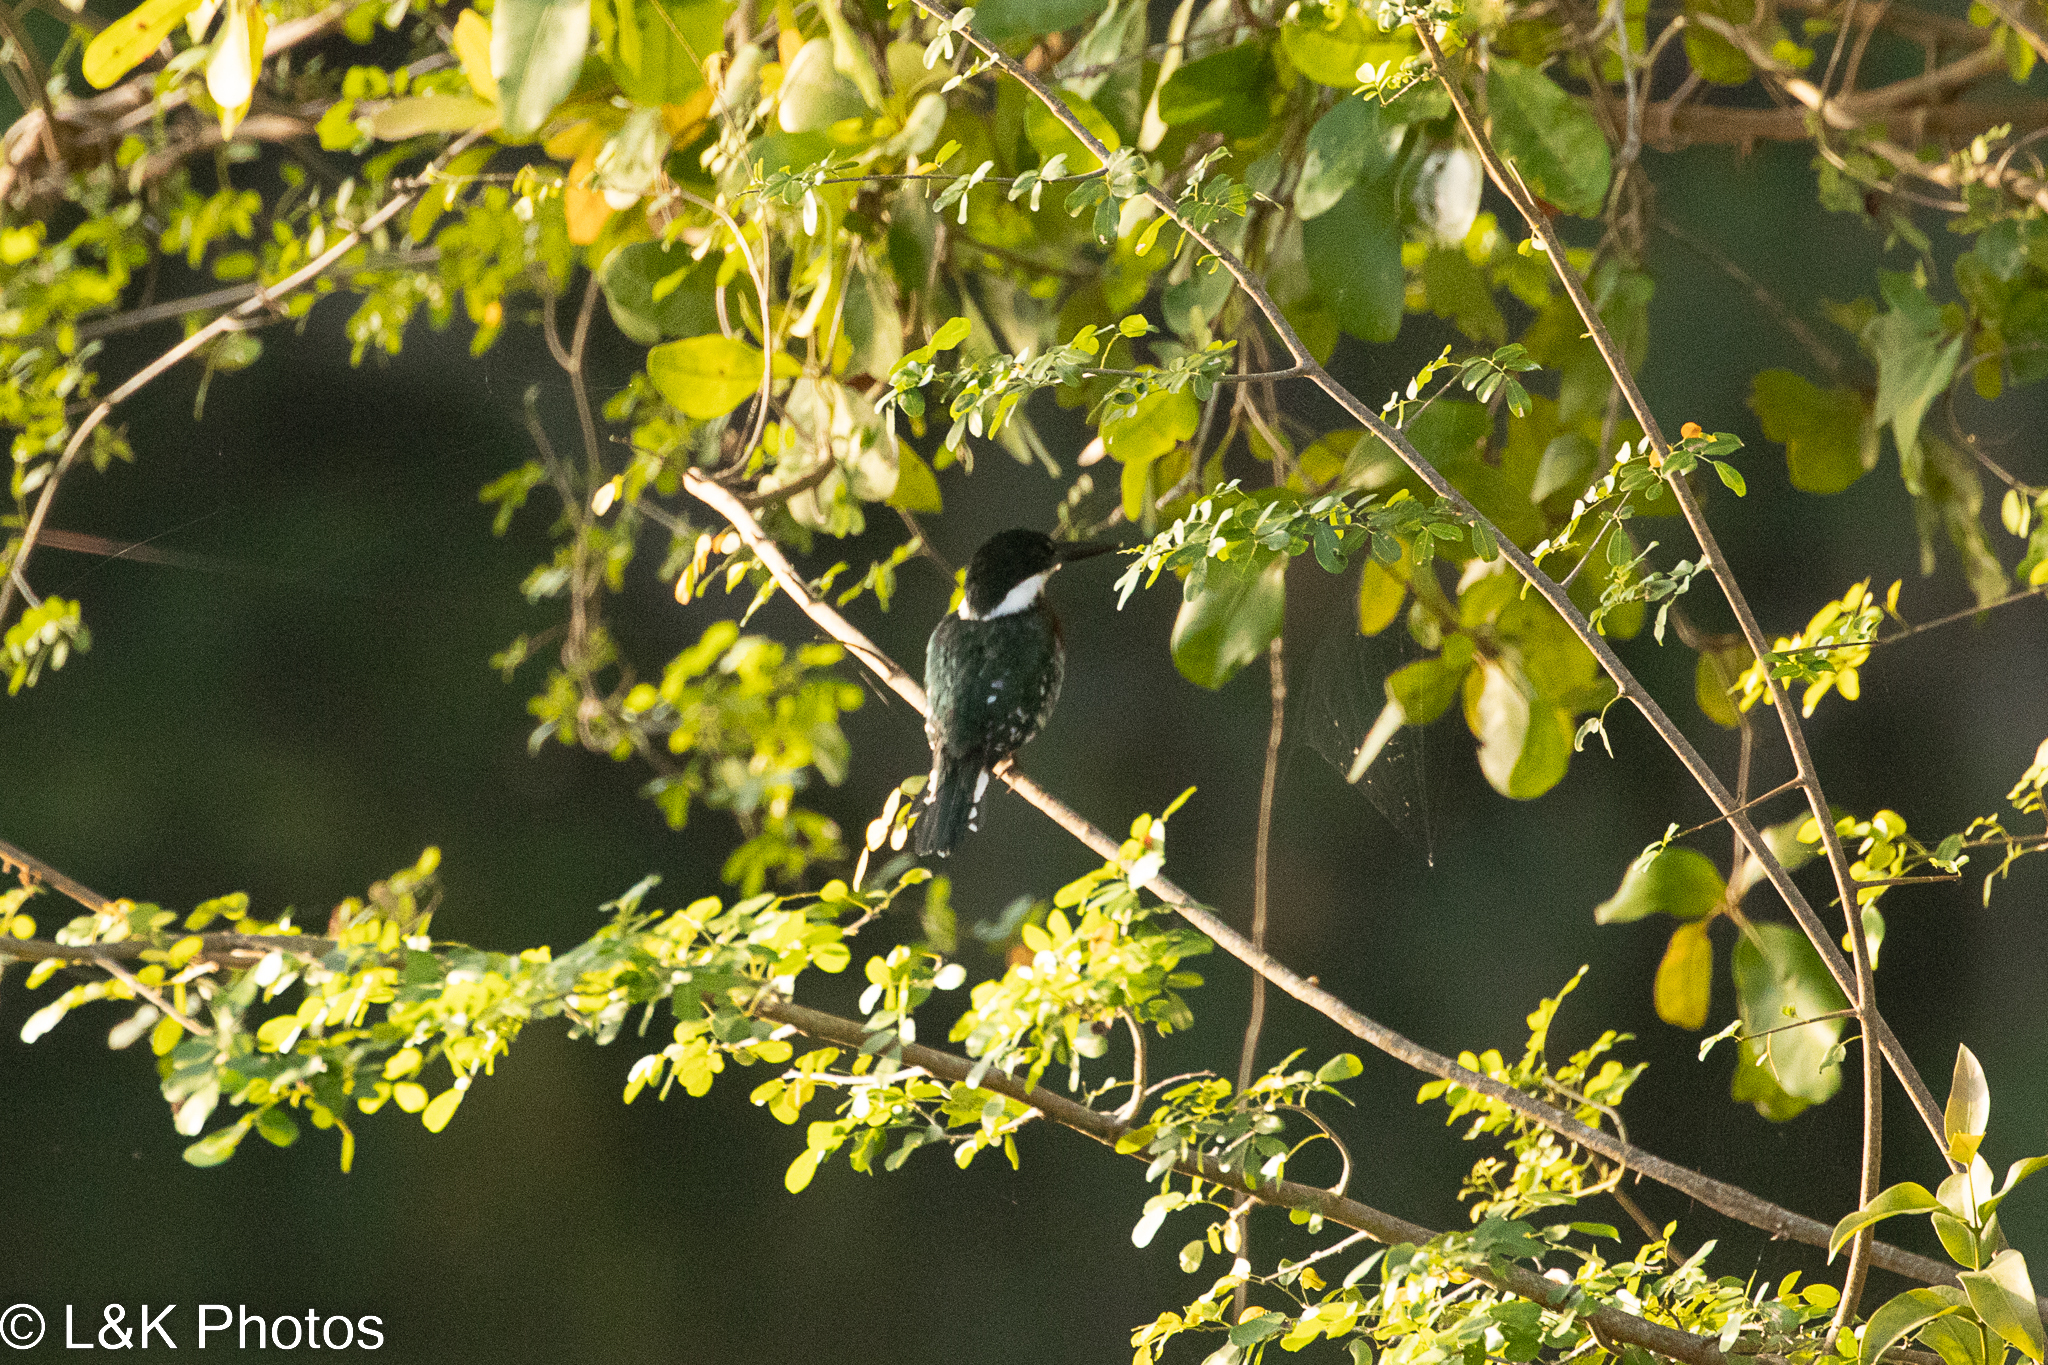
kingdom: Animalia
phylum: Chordata
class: Aves
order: Coraciiformes
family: Alcedinidae
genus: Chloroceryle
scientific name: Chloroceryle americana
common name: Green kingfisher
